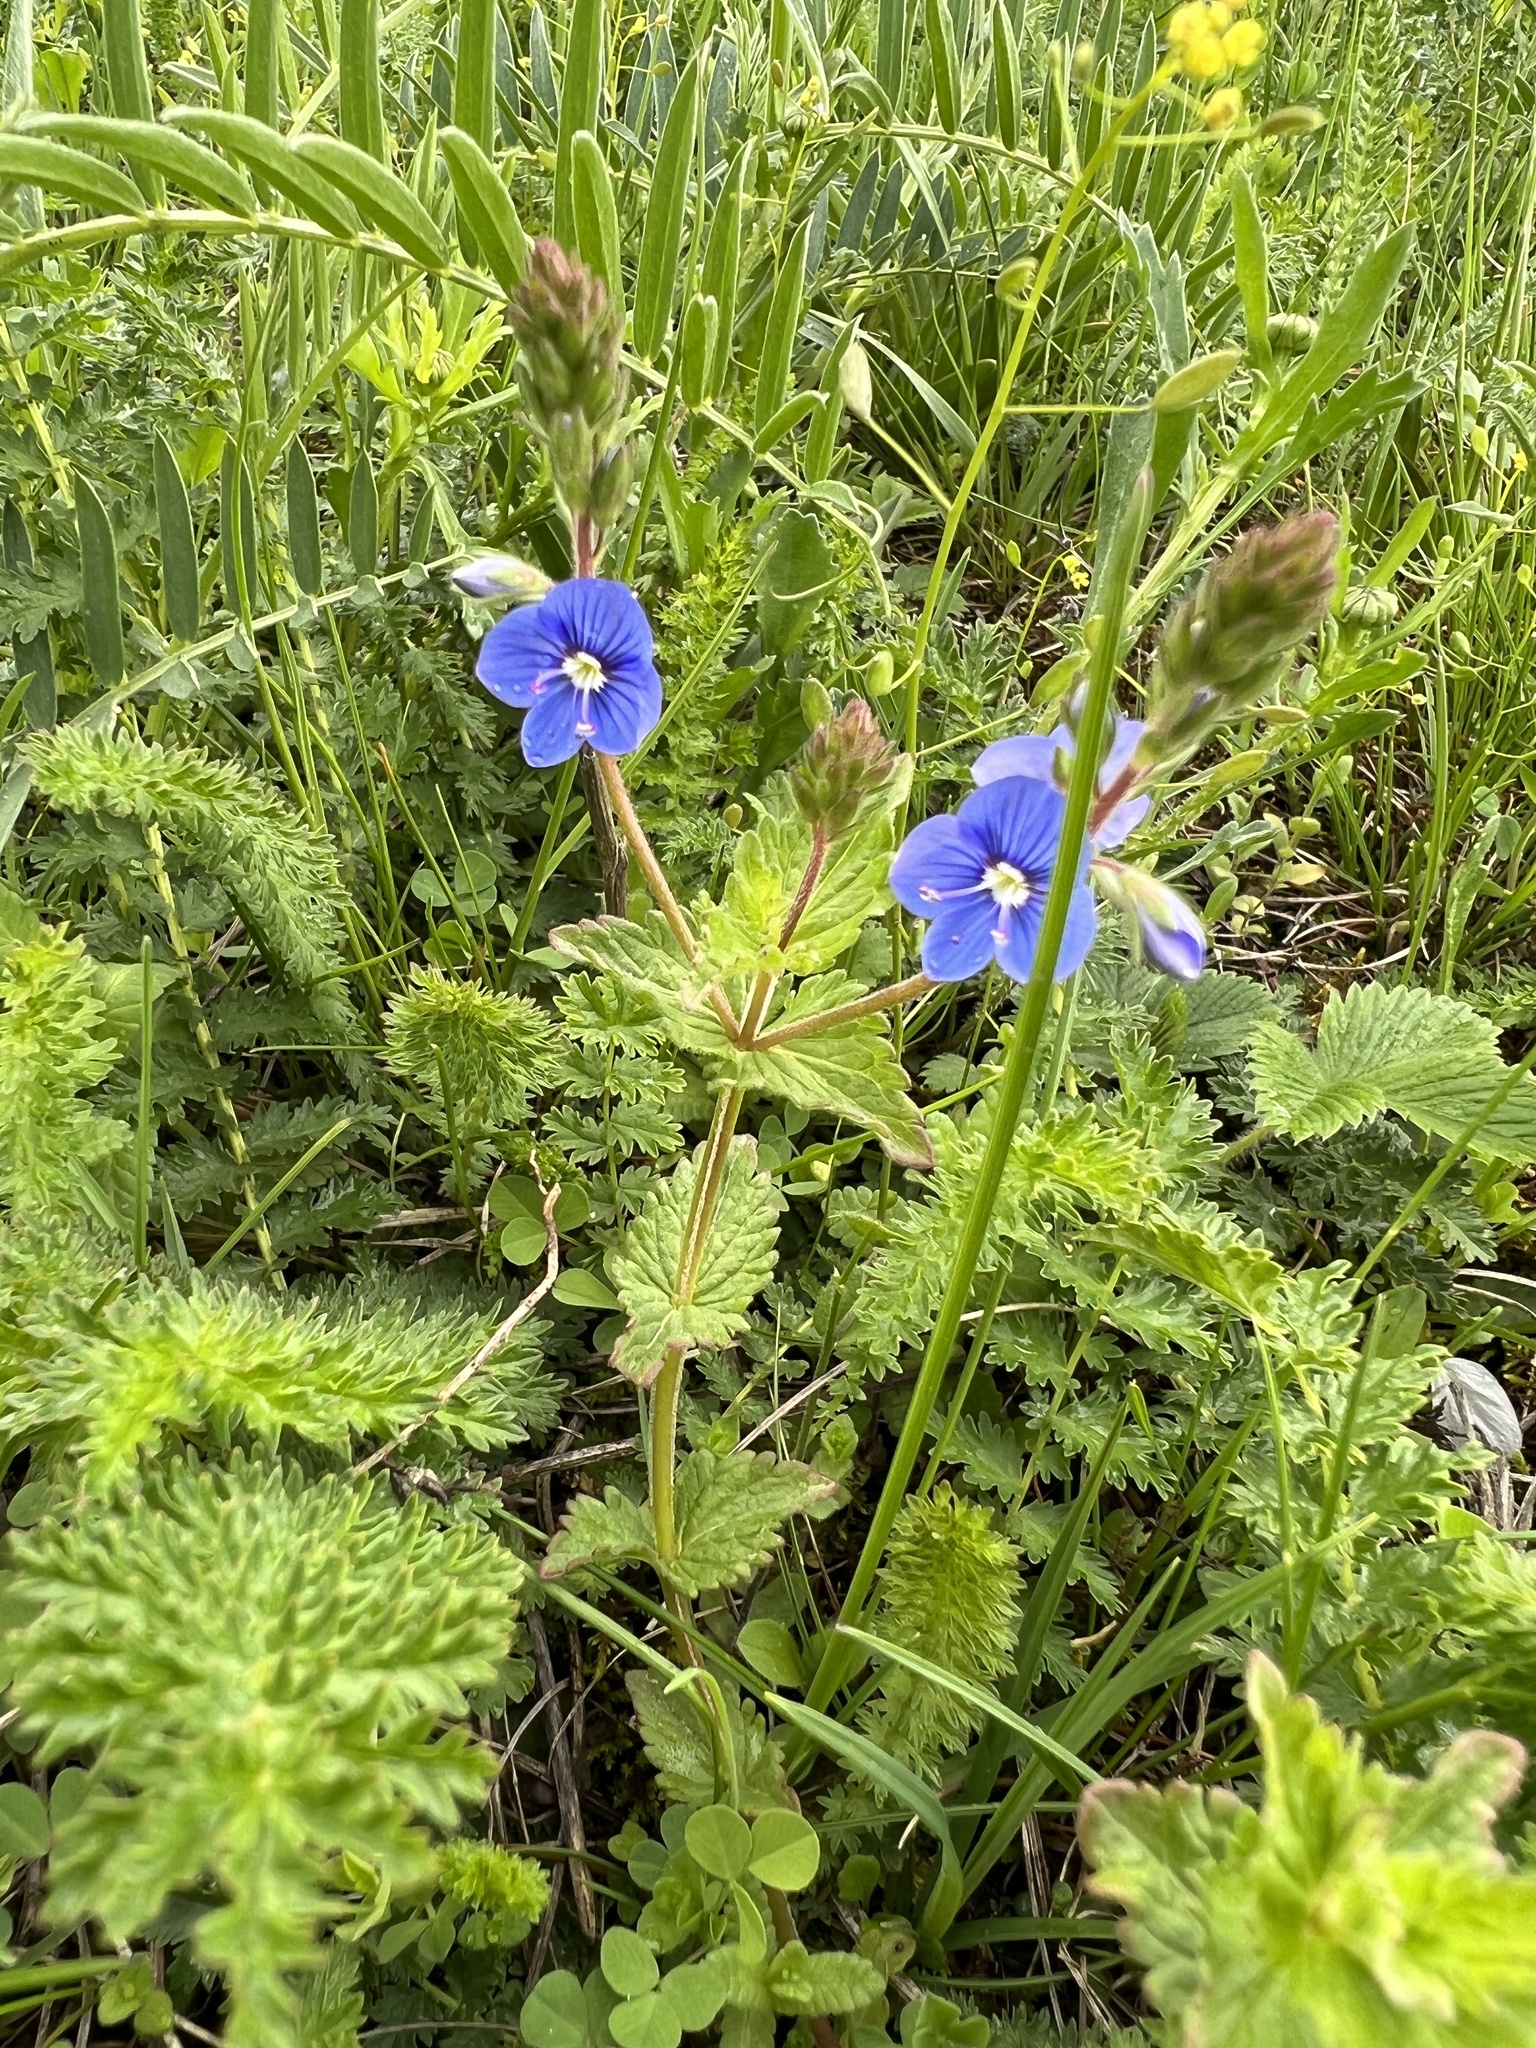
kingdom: Plantae
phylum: Tracheophyta
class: Magnoliopsida
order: Lamiales
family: Plantaginaceae
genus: Veronica
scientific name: Veronica chamaedrys
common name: Germander speedwell
